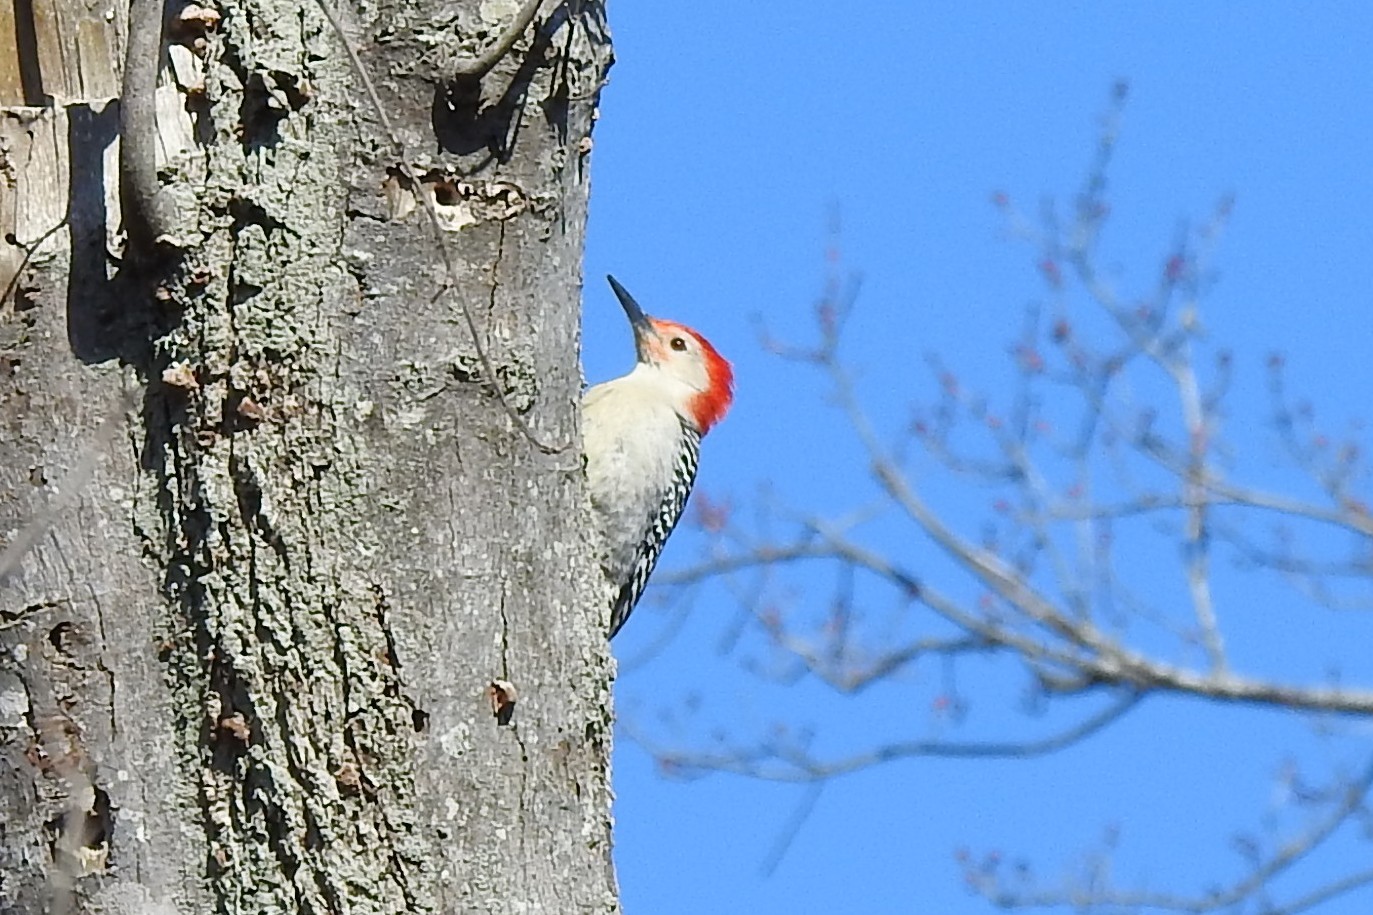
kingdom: Animalia
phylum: Chordata
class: Aves
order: Piciformes
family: Picidae
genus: Melanerpes
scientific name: Melanerpes carolinus
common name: Red-bellied woodpecker
